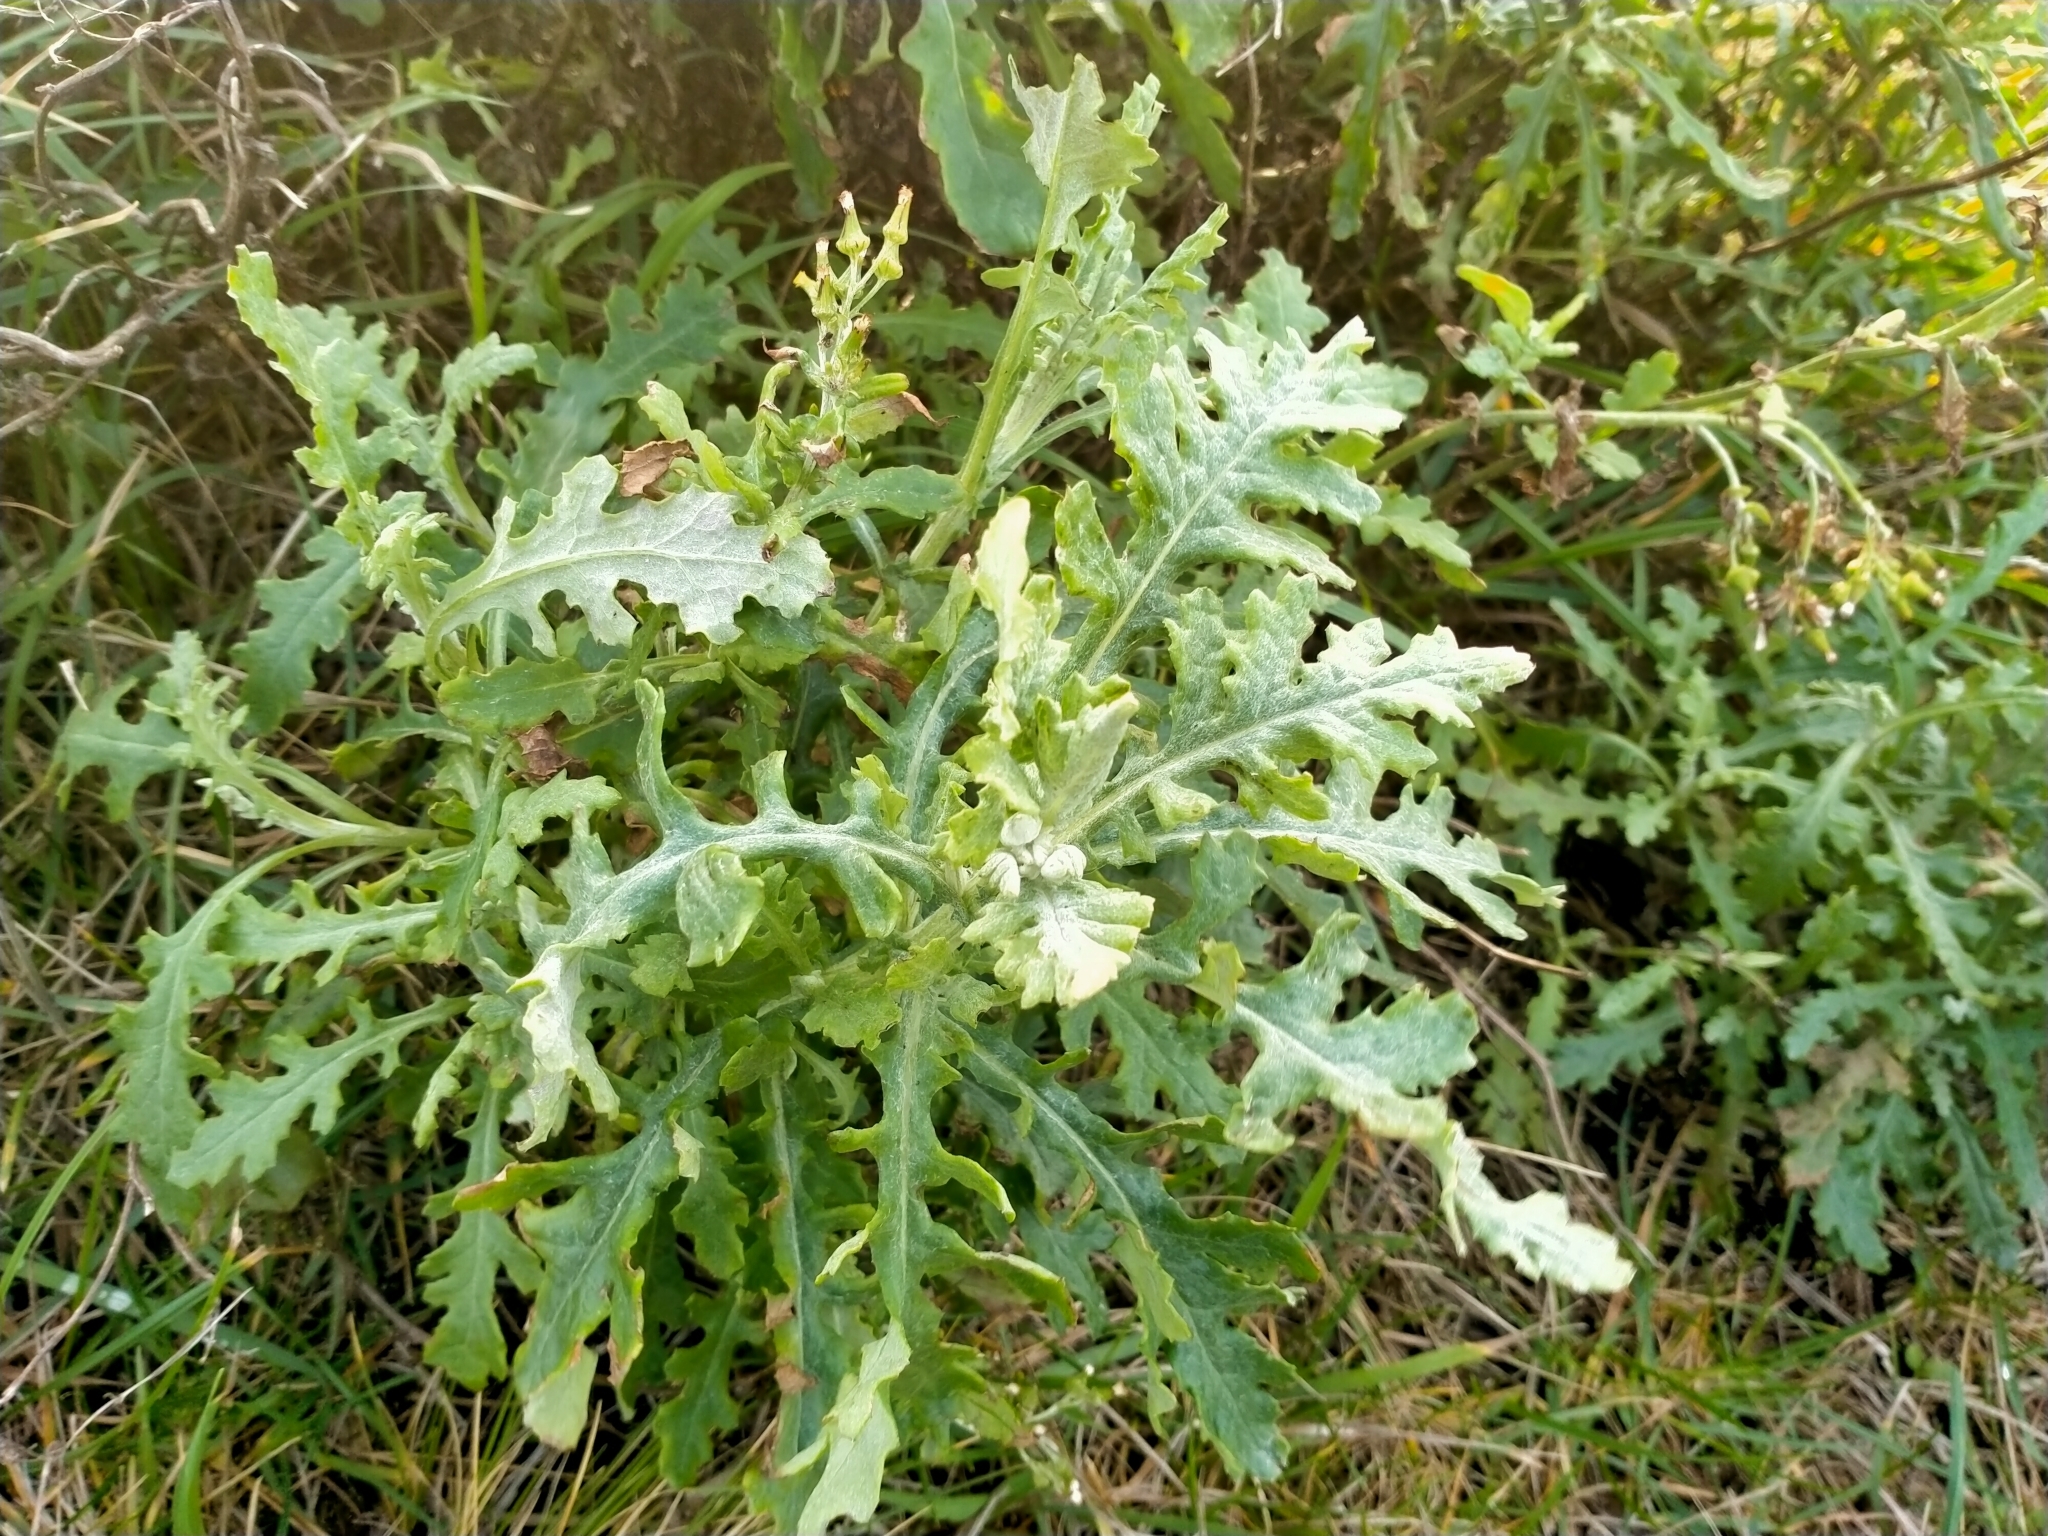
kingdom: Plantae
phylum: Tracheophyta
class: Magnoliopsida
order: Asterales
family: Asteraceae
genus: Senecio
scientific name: Senecio glomeratus
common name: Cutleaf burnweed
